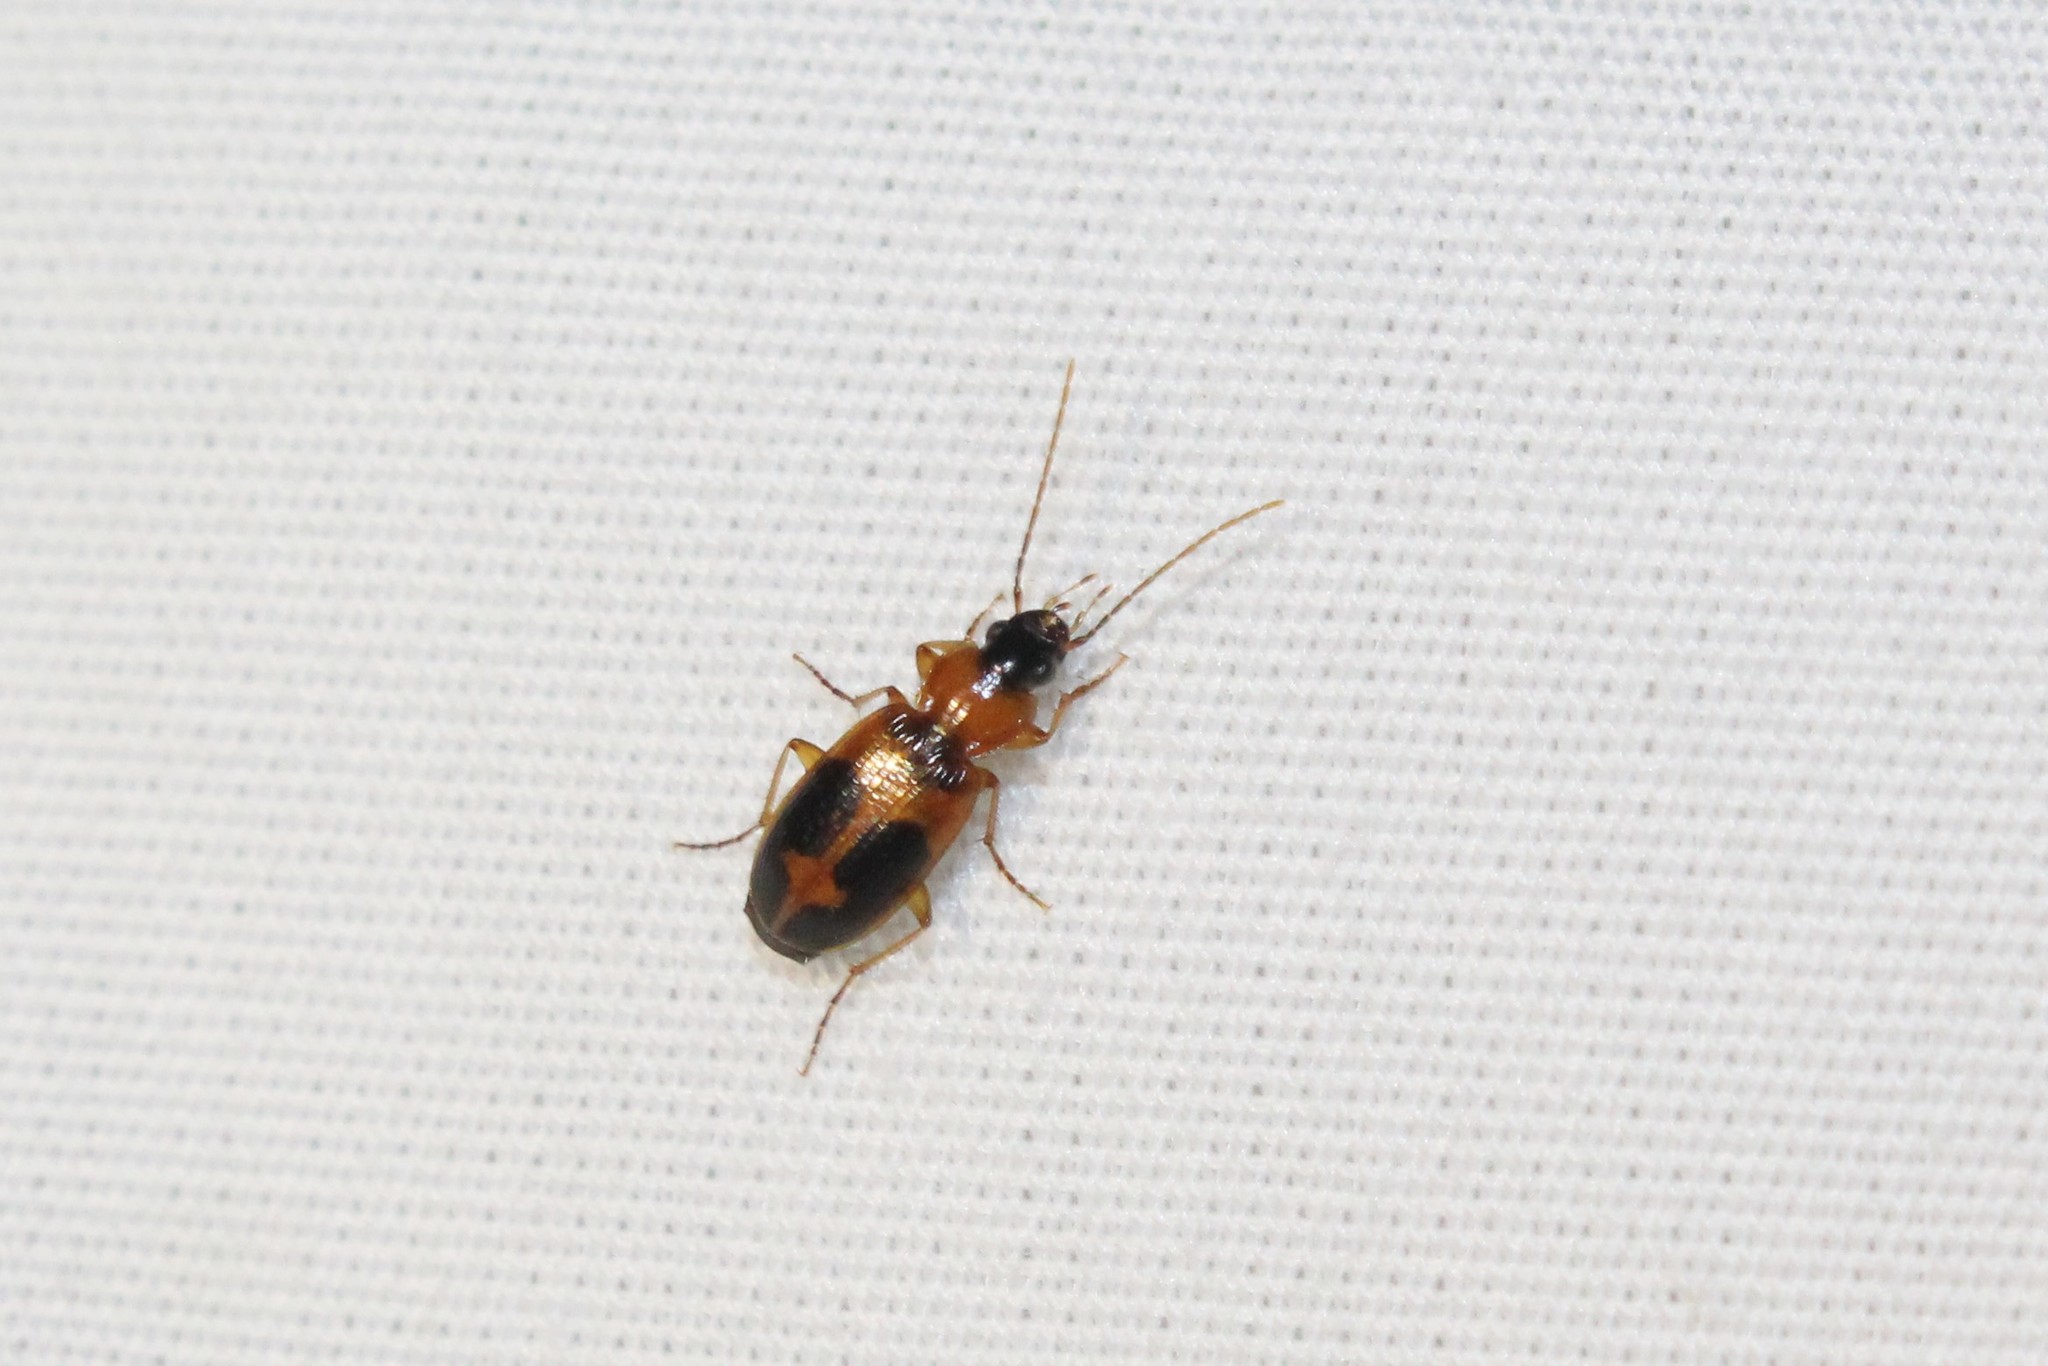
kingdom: Animalia
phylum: Arthropoda
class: Insecta
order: Coleoptera
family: Carabidae
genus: Badister
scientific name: Badister neopulchellus
